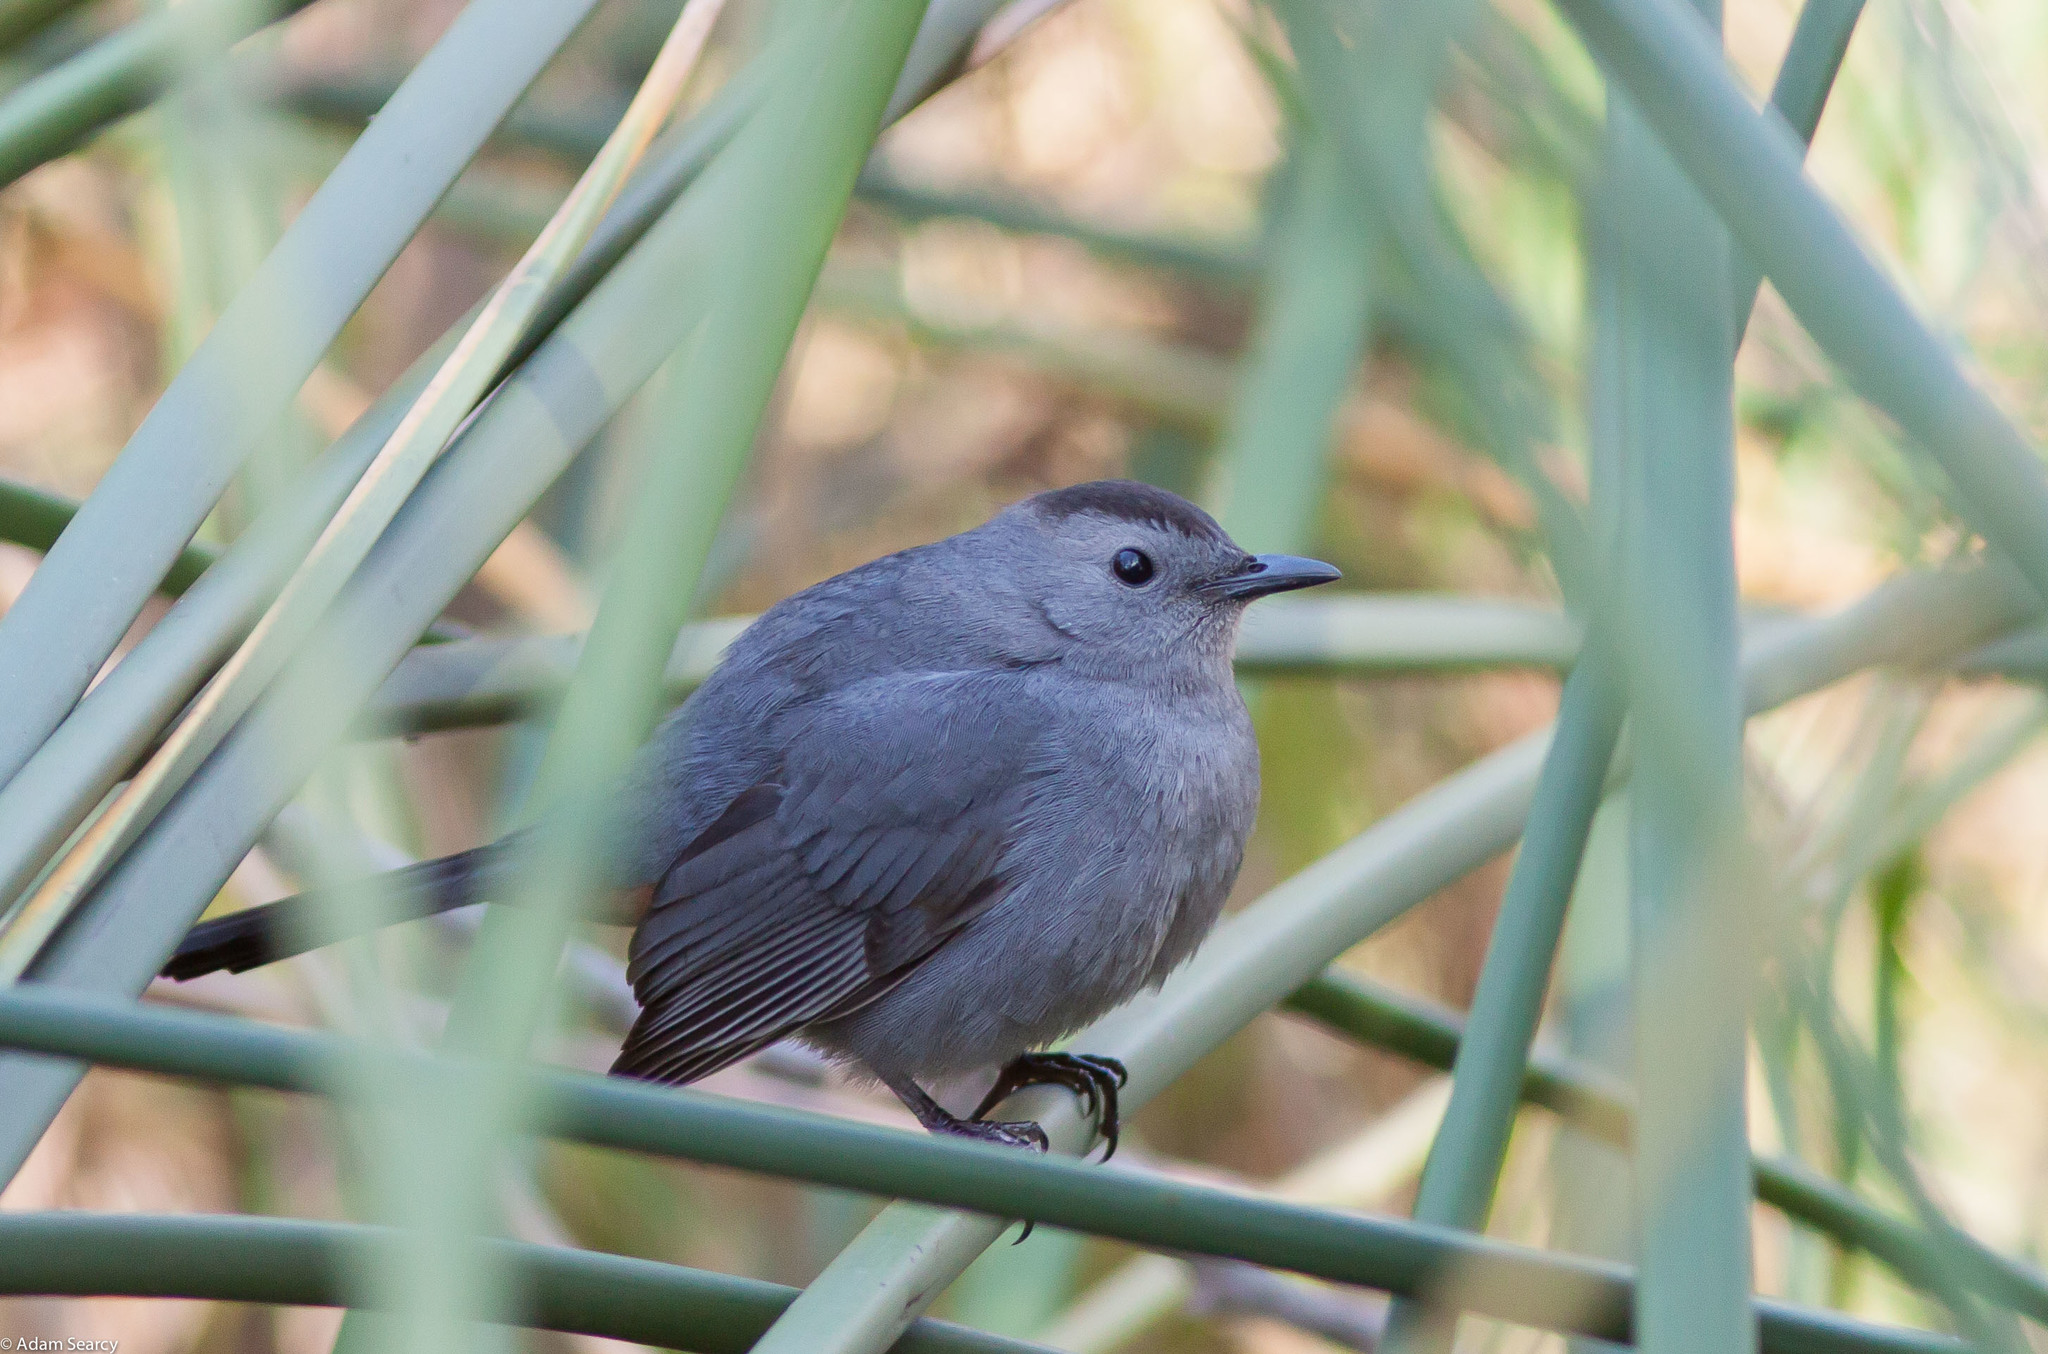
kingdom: Animalia
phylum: Chordata
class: Aves
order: Passeriformes
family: Mimidae
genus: Dumetella
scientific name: Dumetella carolinensis
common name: Gray catbird
